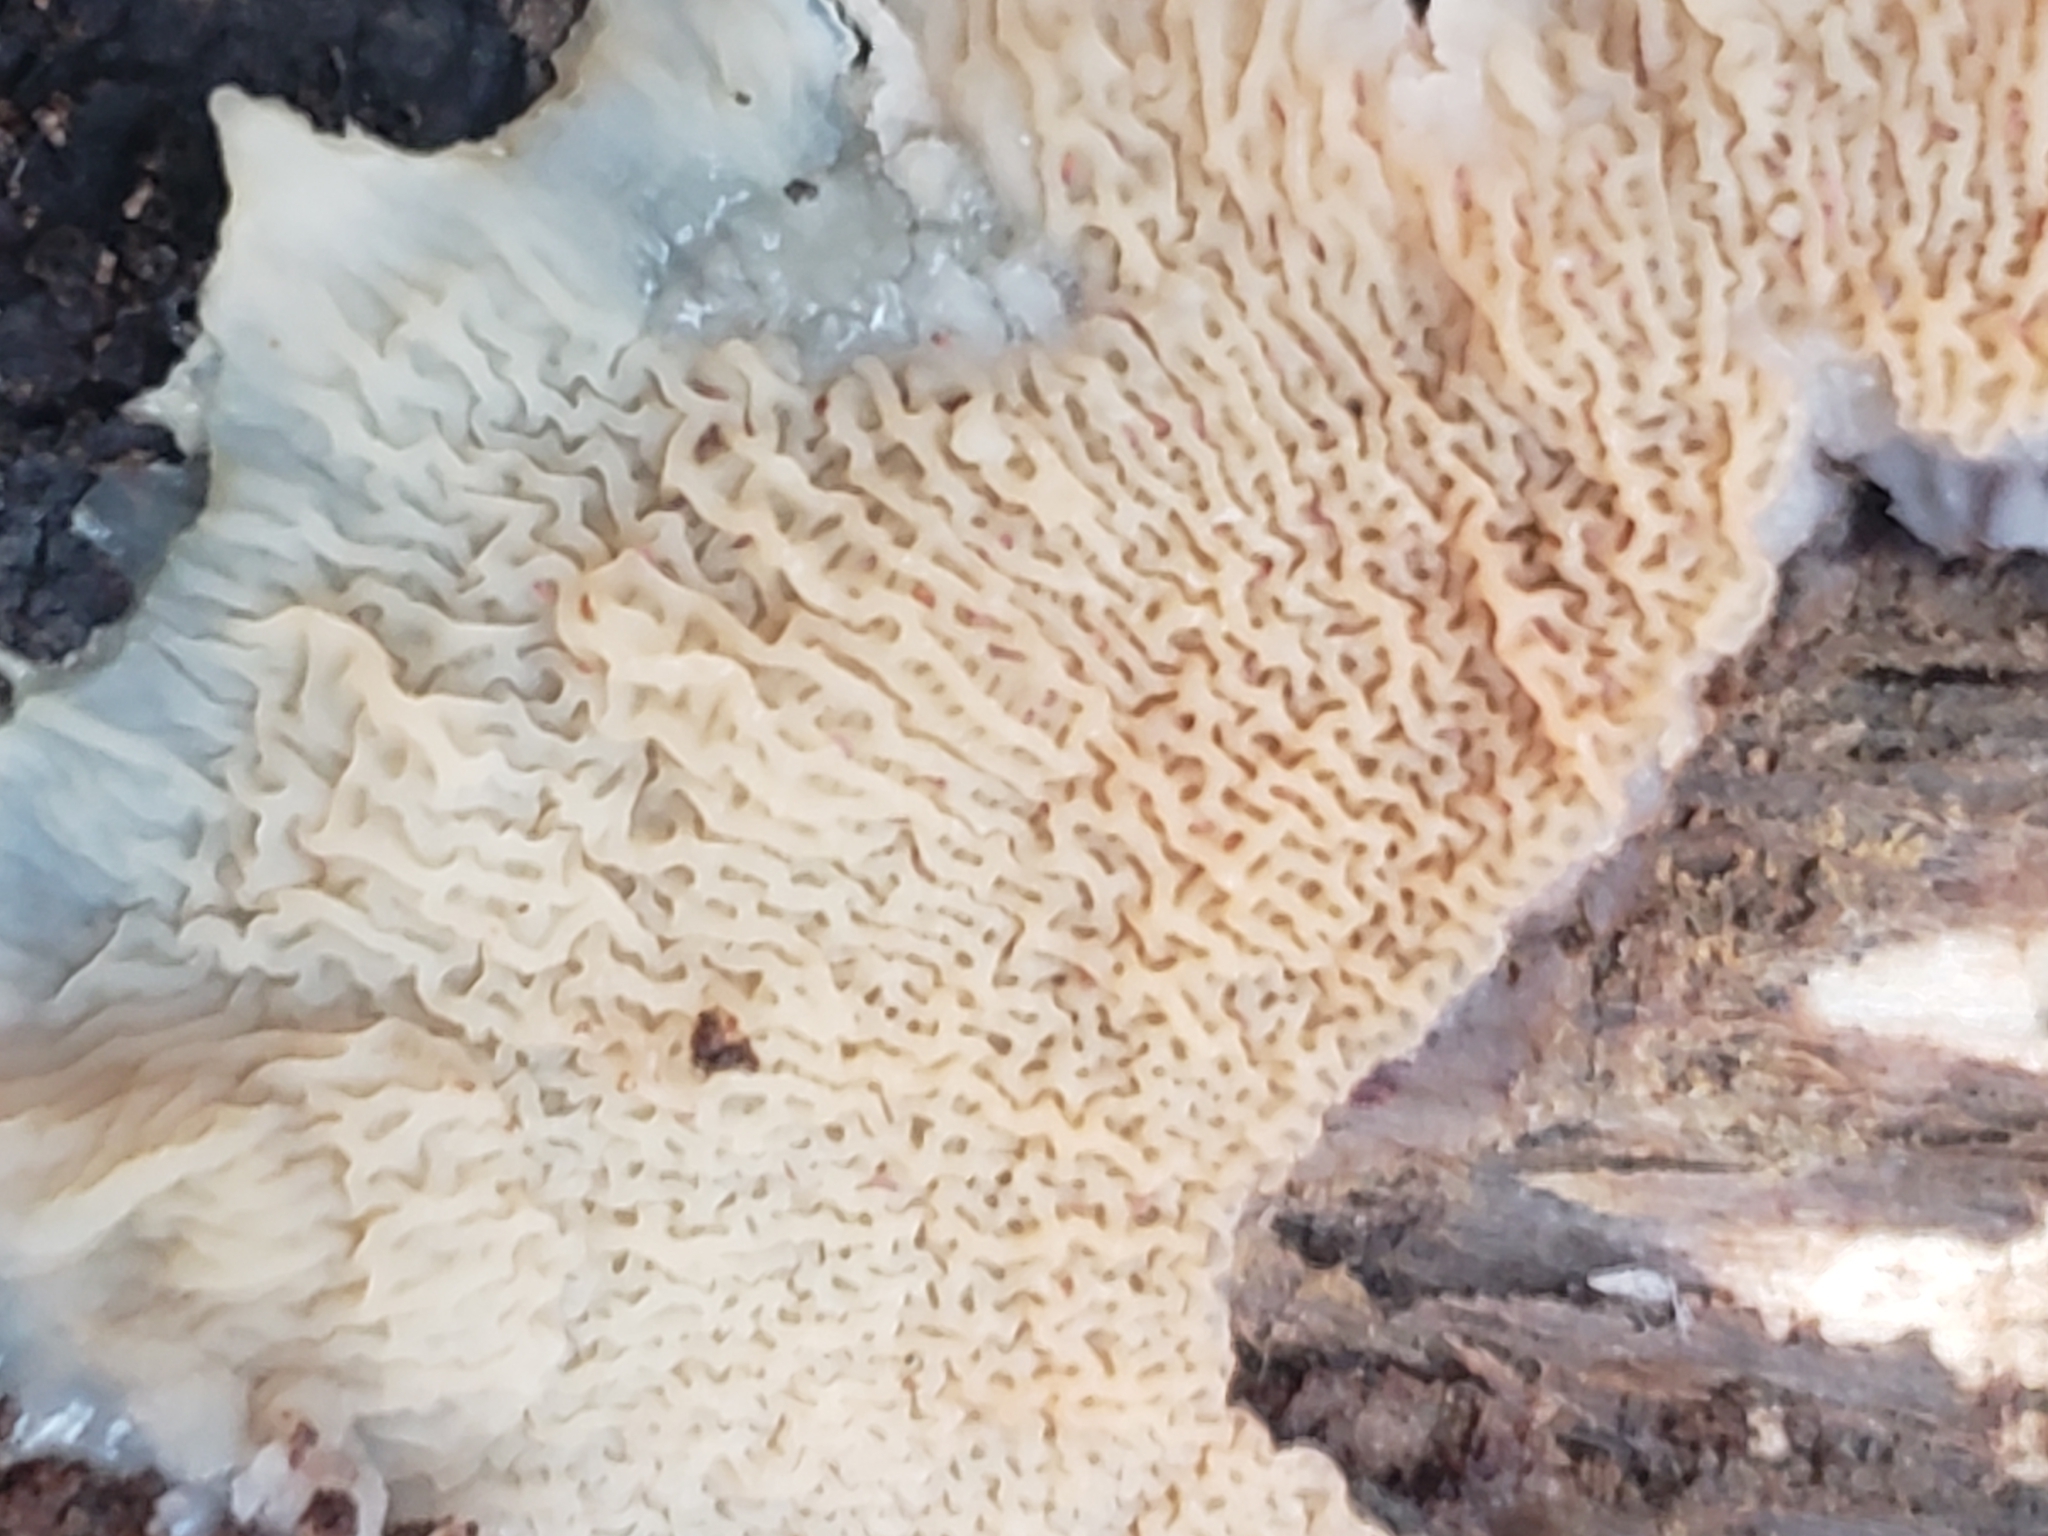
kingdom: Fungi
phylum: Basidiomycota
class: Agaricomycetes
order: Polyporales
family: Meruliaceae
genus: Phlebia
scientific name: Phlebia tremellosa
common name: Jelly rot
